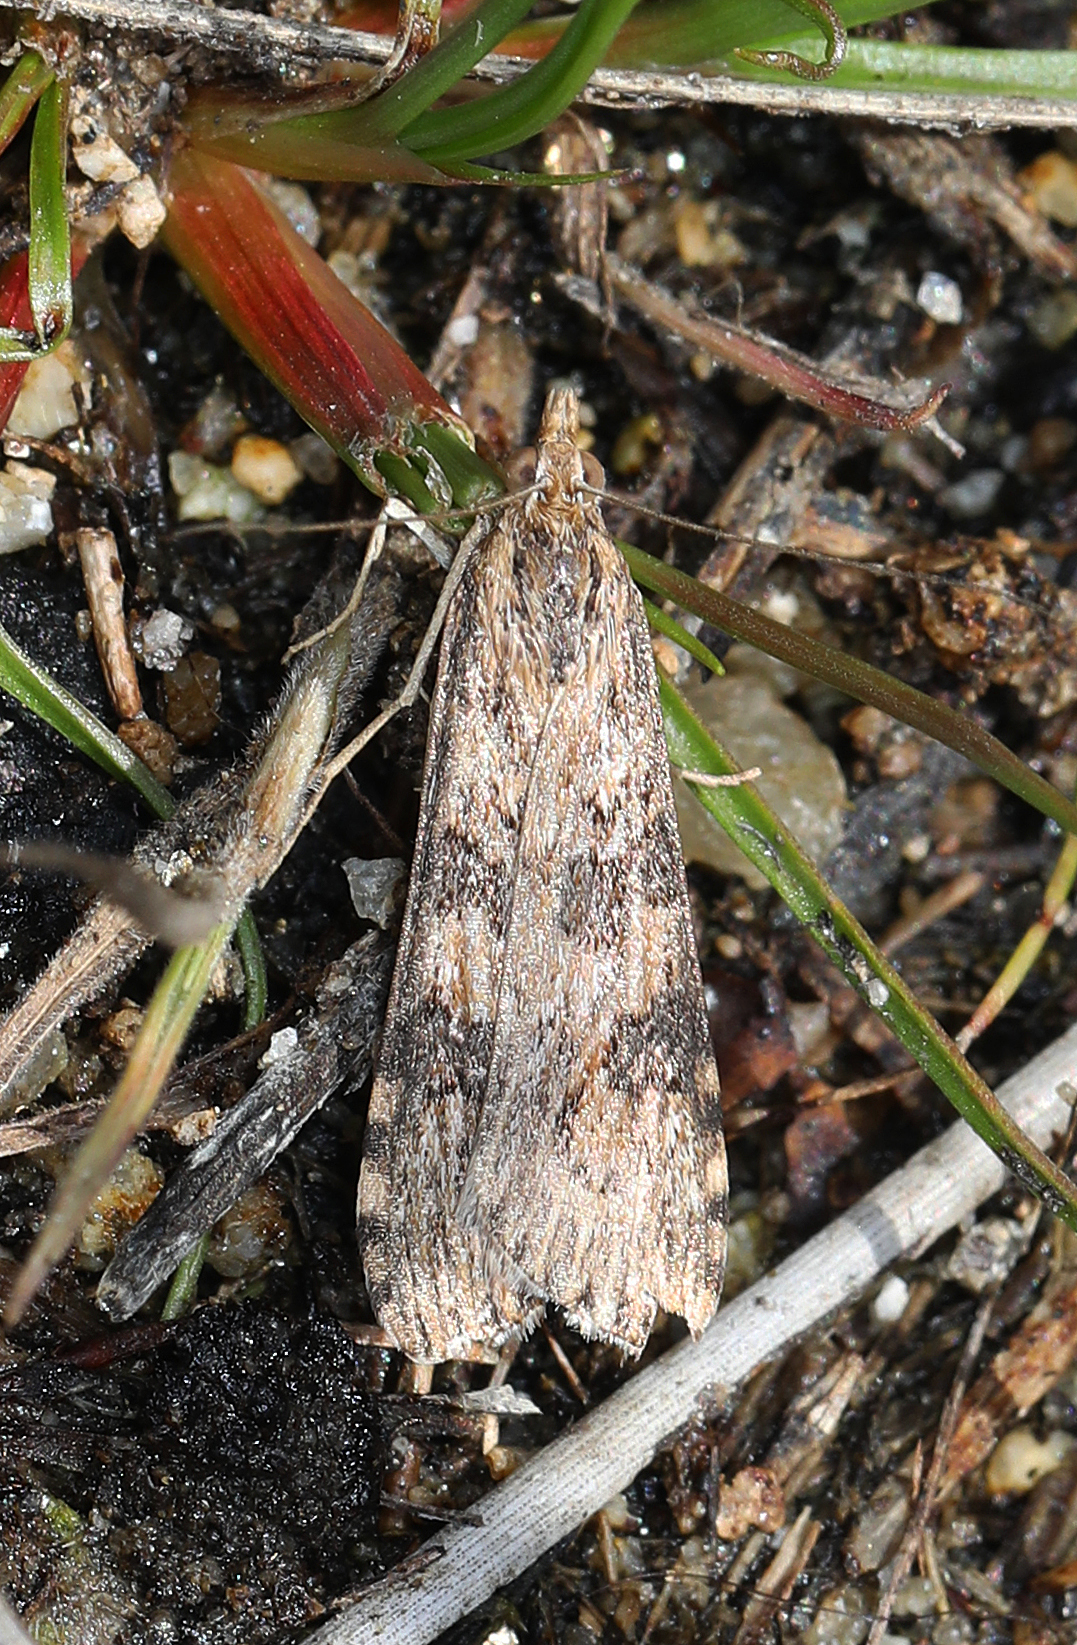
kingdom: Animalia
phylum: Arthropoda
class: Insecta
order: Lepidoptera
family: Crambidae
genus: Nomophila
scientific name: Nomophila nearctica
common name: American rush veneer
